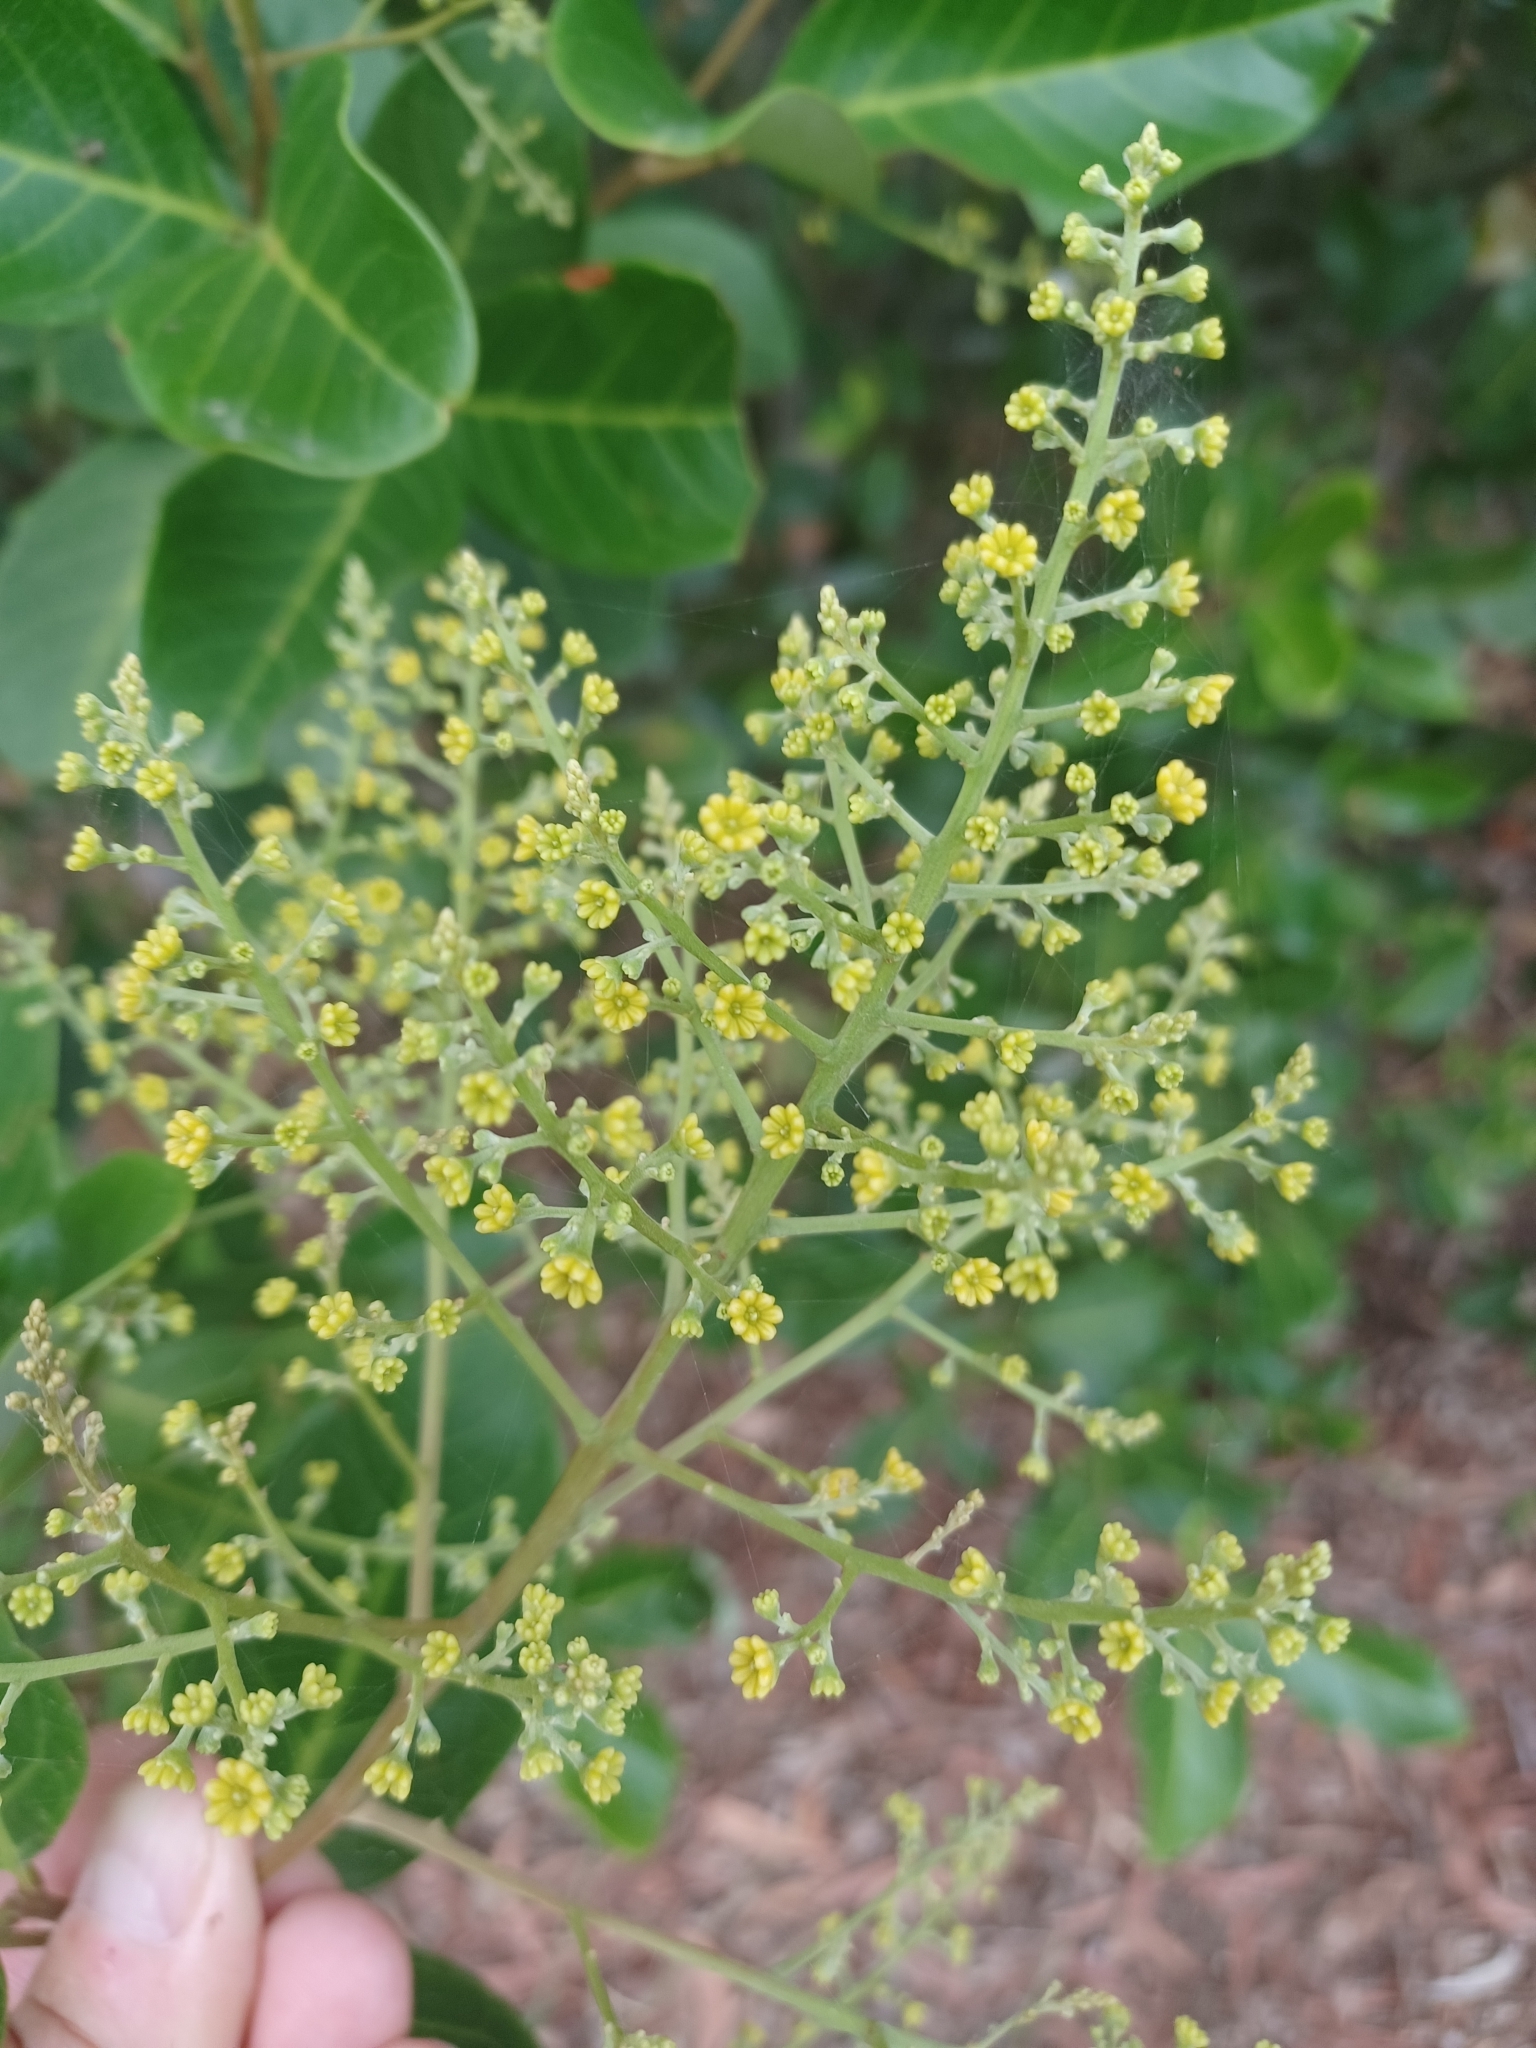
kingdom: Plantae
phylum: Tracheophyta
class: Magnoliopsida
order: Sapindales
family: Sapindaceae
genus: Alectryon
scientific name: Alectryon coriaceus
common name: Beach alectryon
